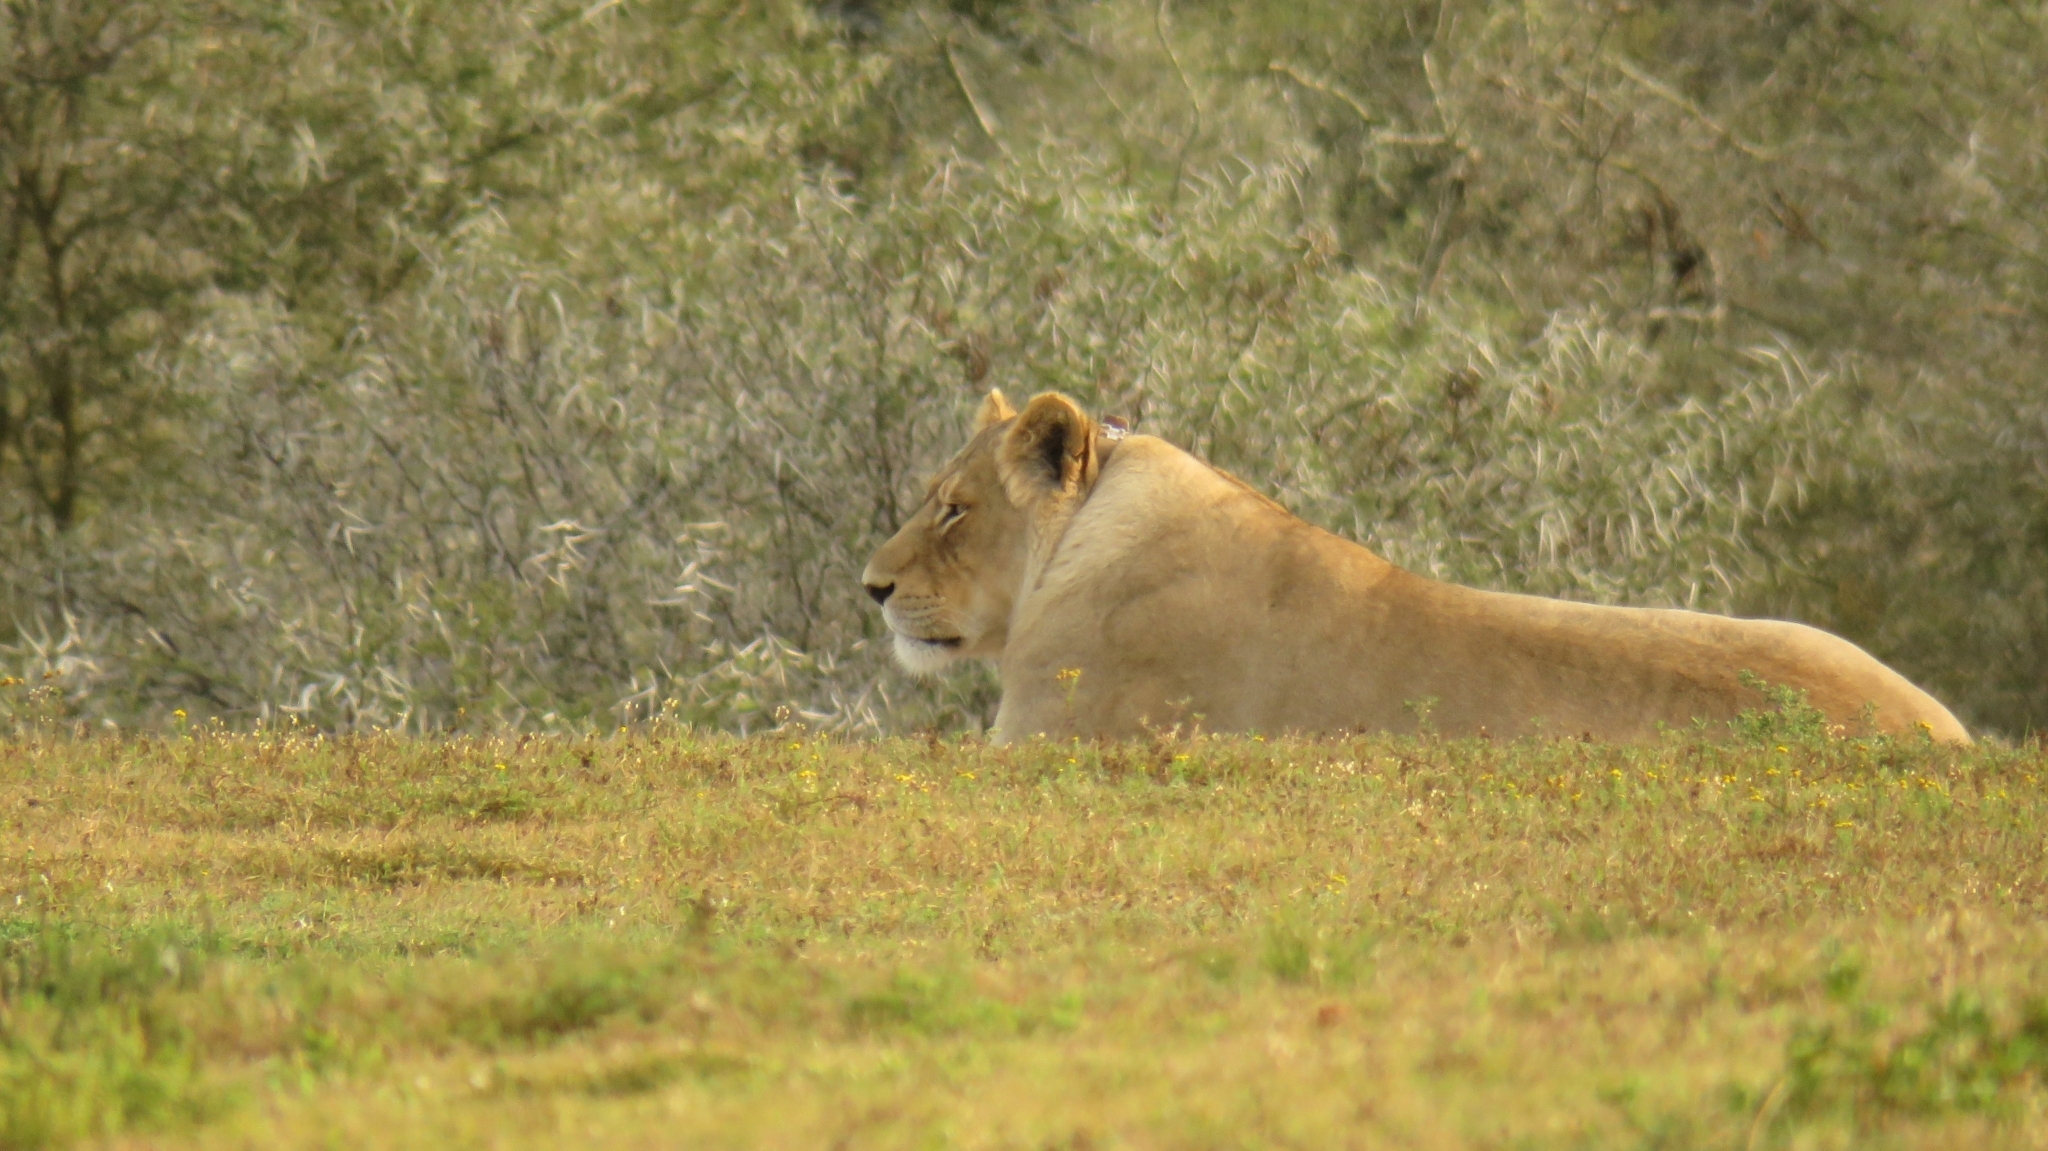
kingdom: Animalia
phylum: Chordata
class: Mammalia
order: Carnivora
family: Felidae
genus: Panthera
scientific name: Panthera leo
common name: Lion
